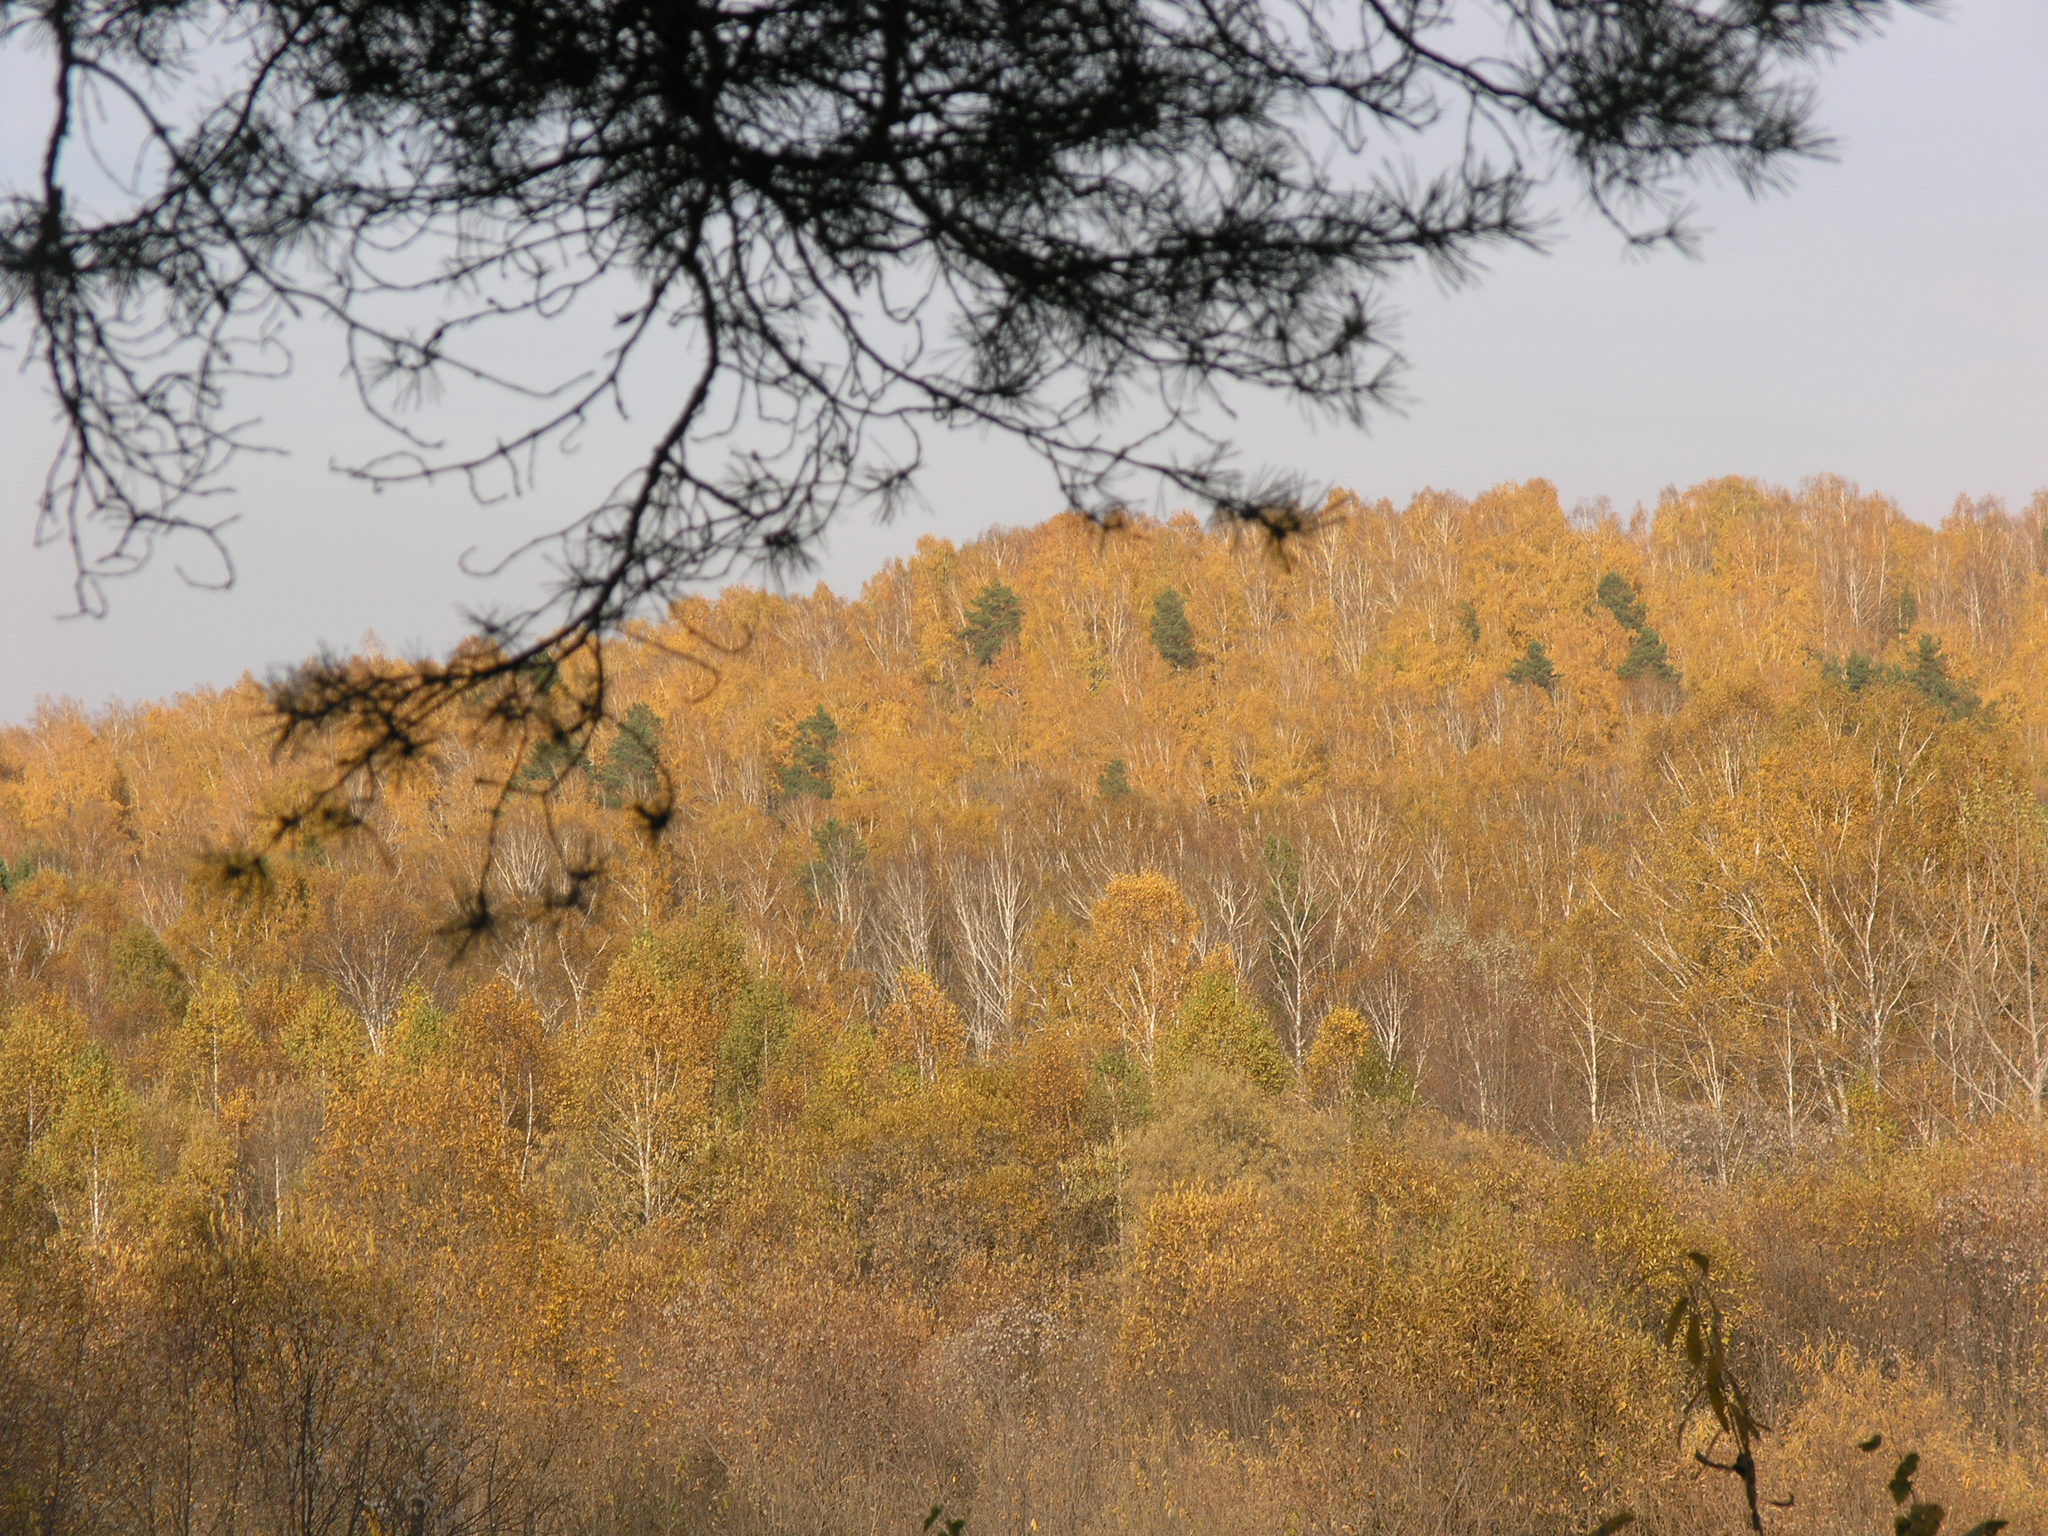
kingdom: Plantae
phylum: Tracheophyta
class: Magnoliopsida
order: Fagales
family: Betulaceae
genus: Betula
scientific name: Betula pendula
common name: Silver birch
